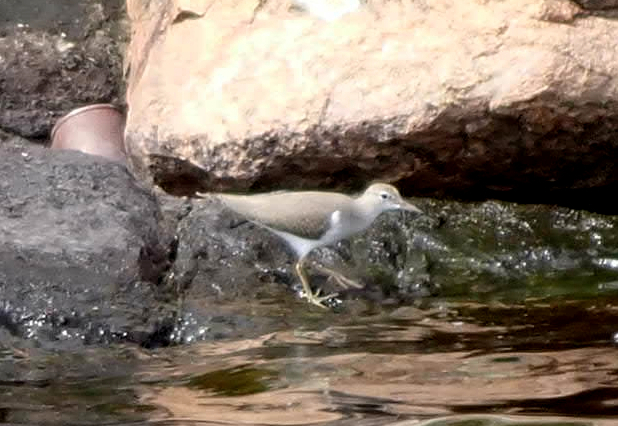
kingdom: Animalia
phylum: Chordata
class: Aves
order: Charadriiformes
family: Scolopacidae
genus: Actitis
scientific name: Actitis macularius
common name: Spotted sandpiper
